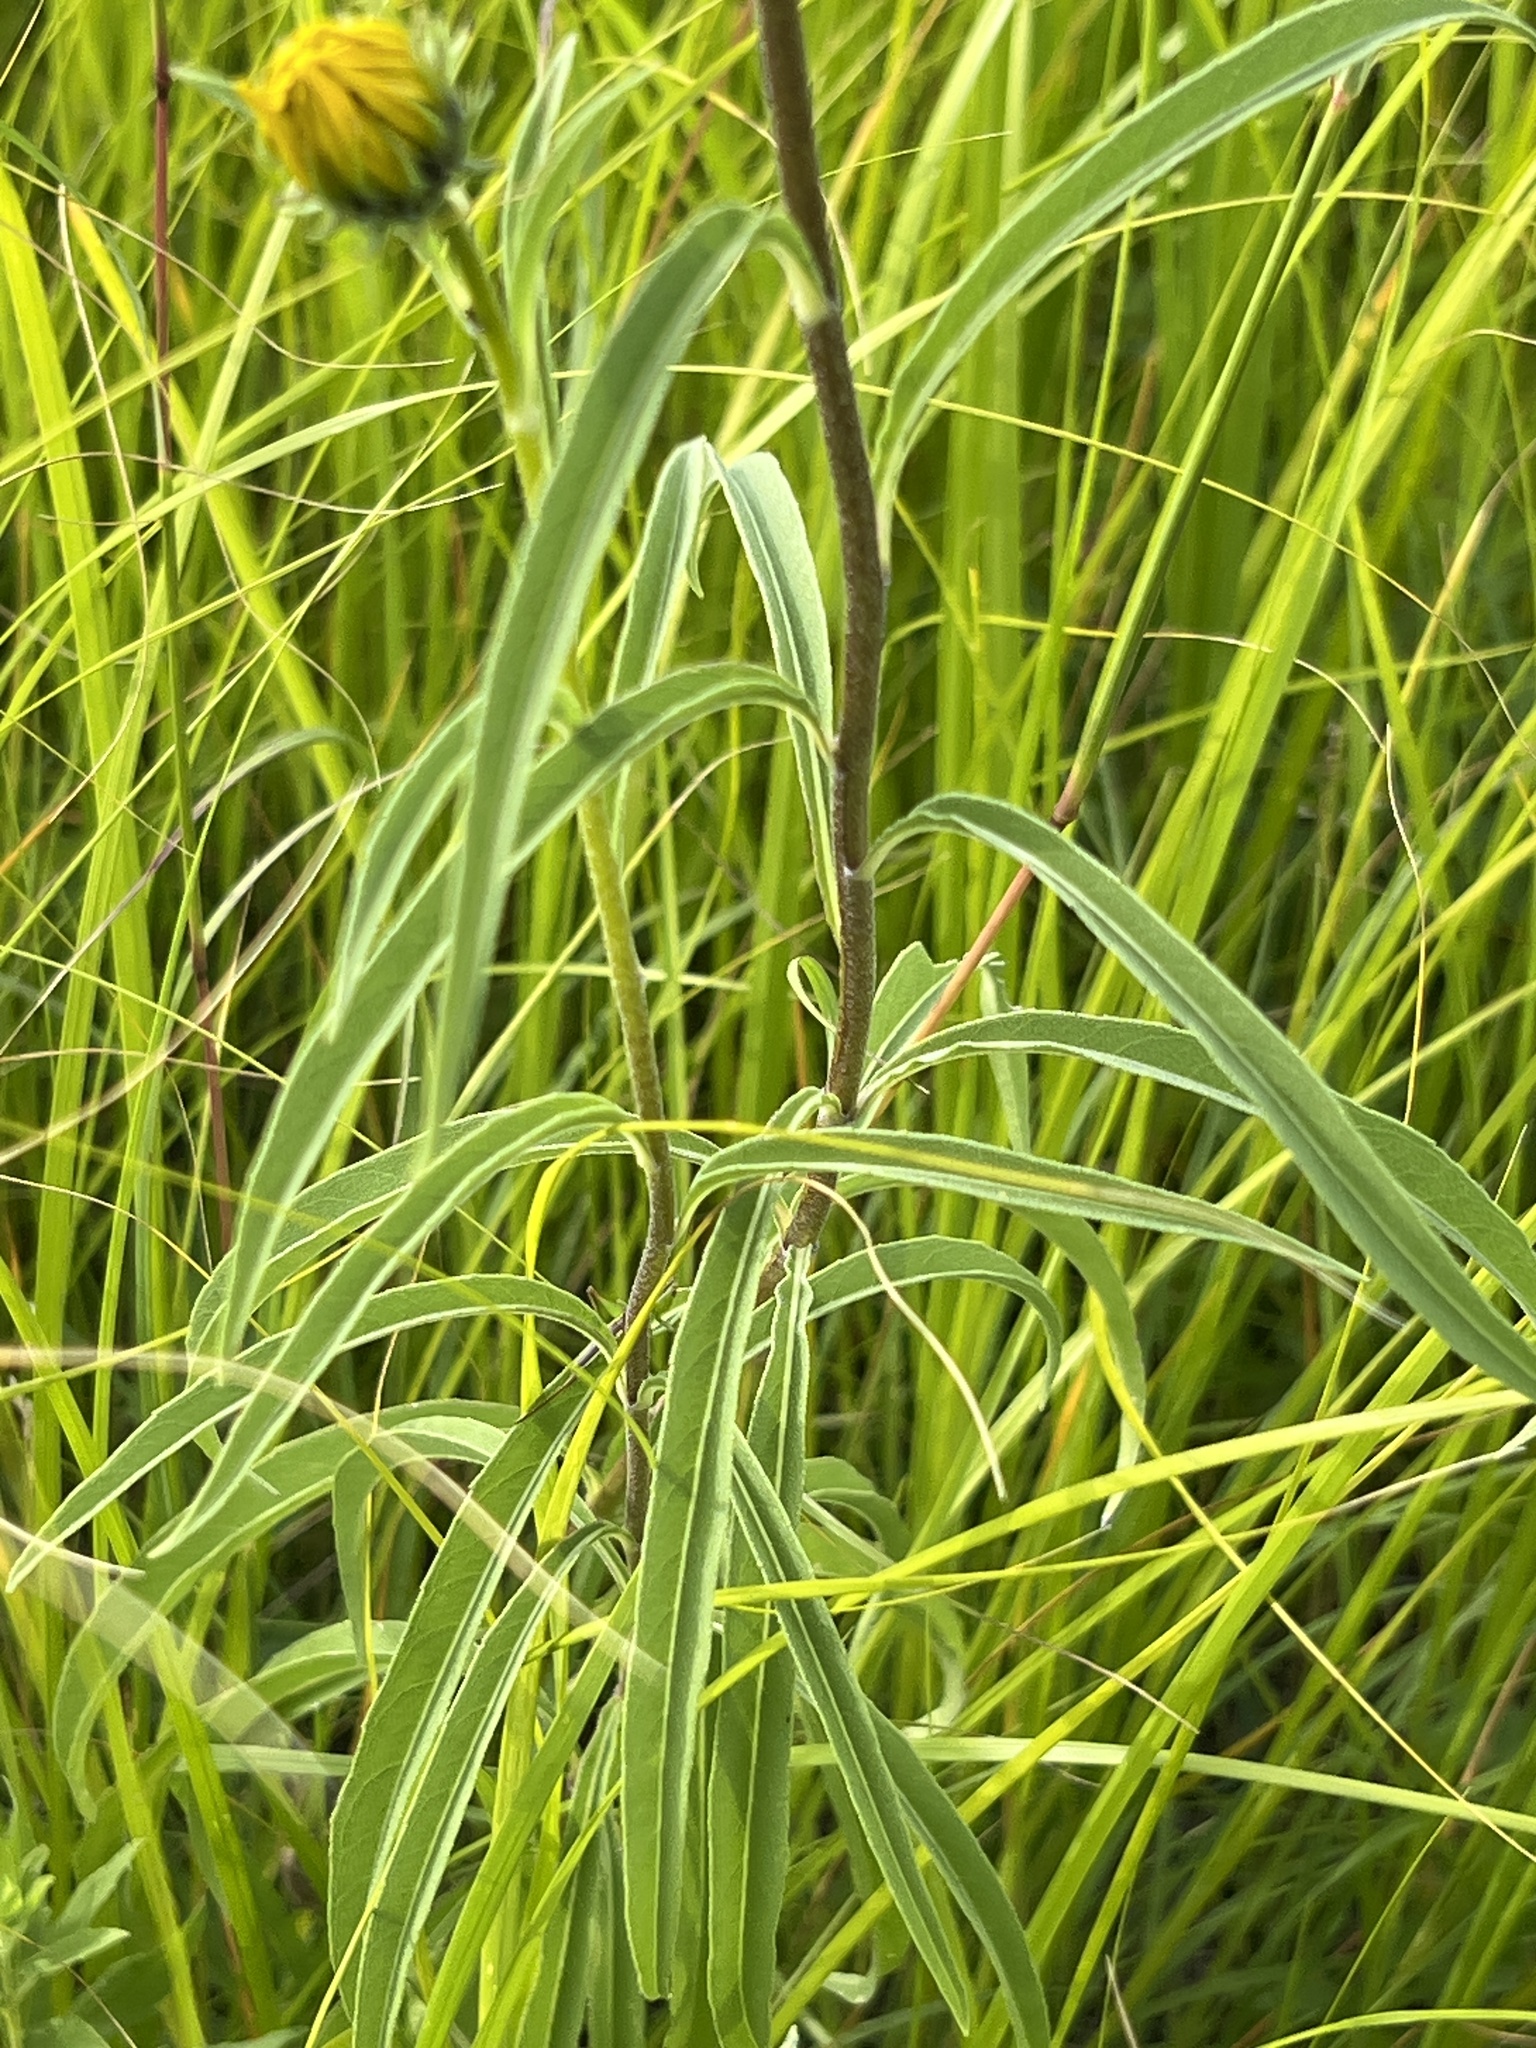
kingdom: Plantae
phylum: Tracheophyta
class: Magnoliopsida
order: Asterales
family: Asteraceae
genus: Helianthus
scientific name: Helianthus maximiliani
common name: Maximilian's sunflower
